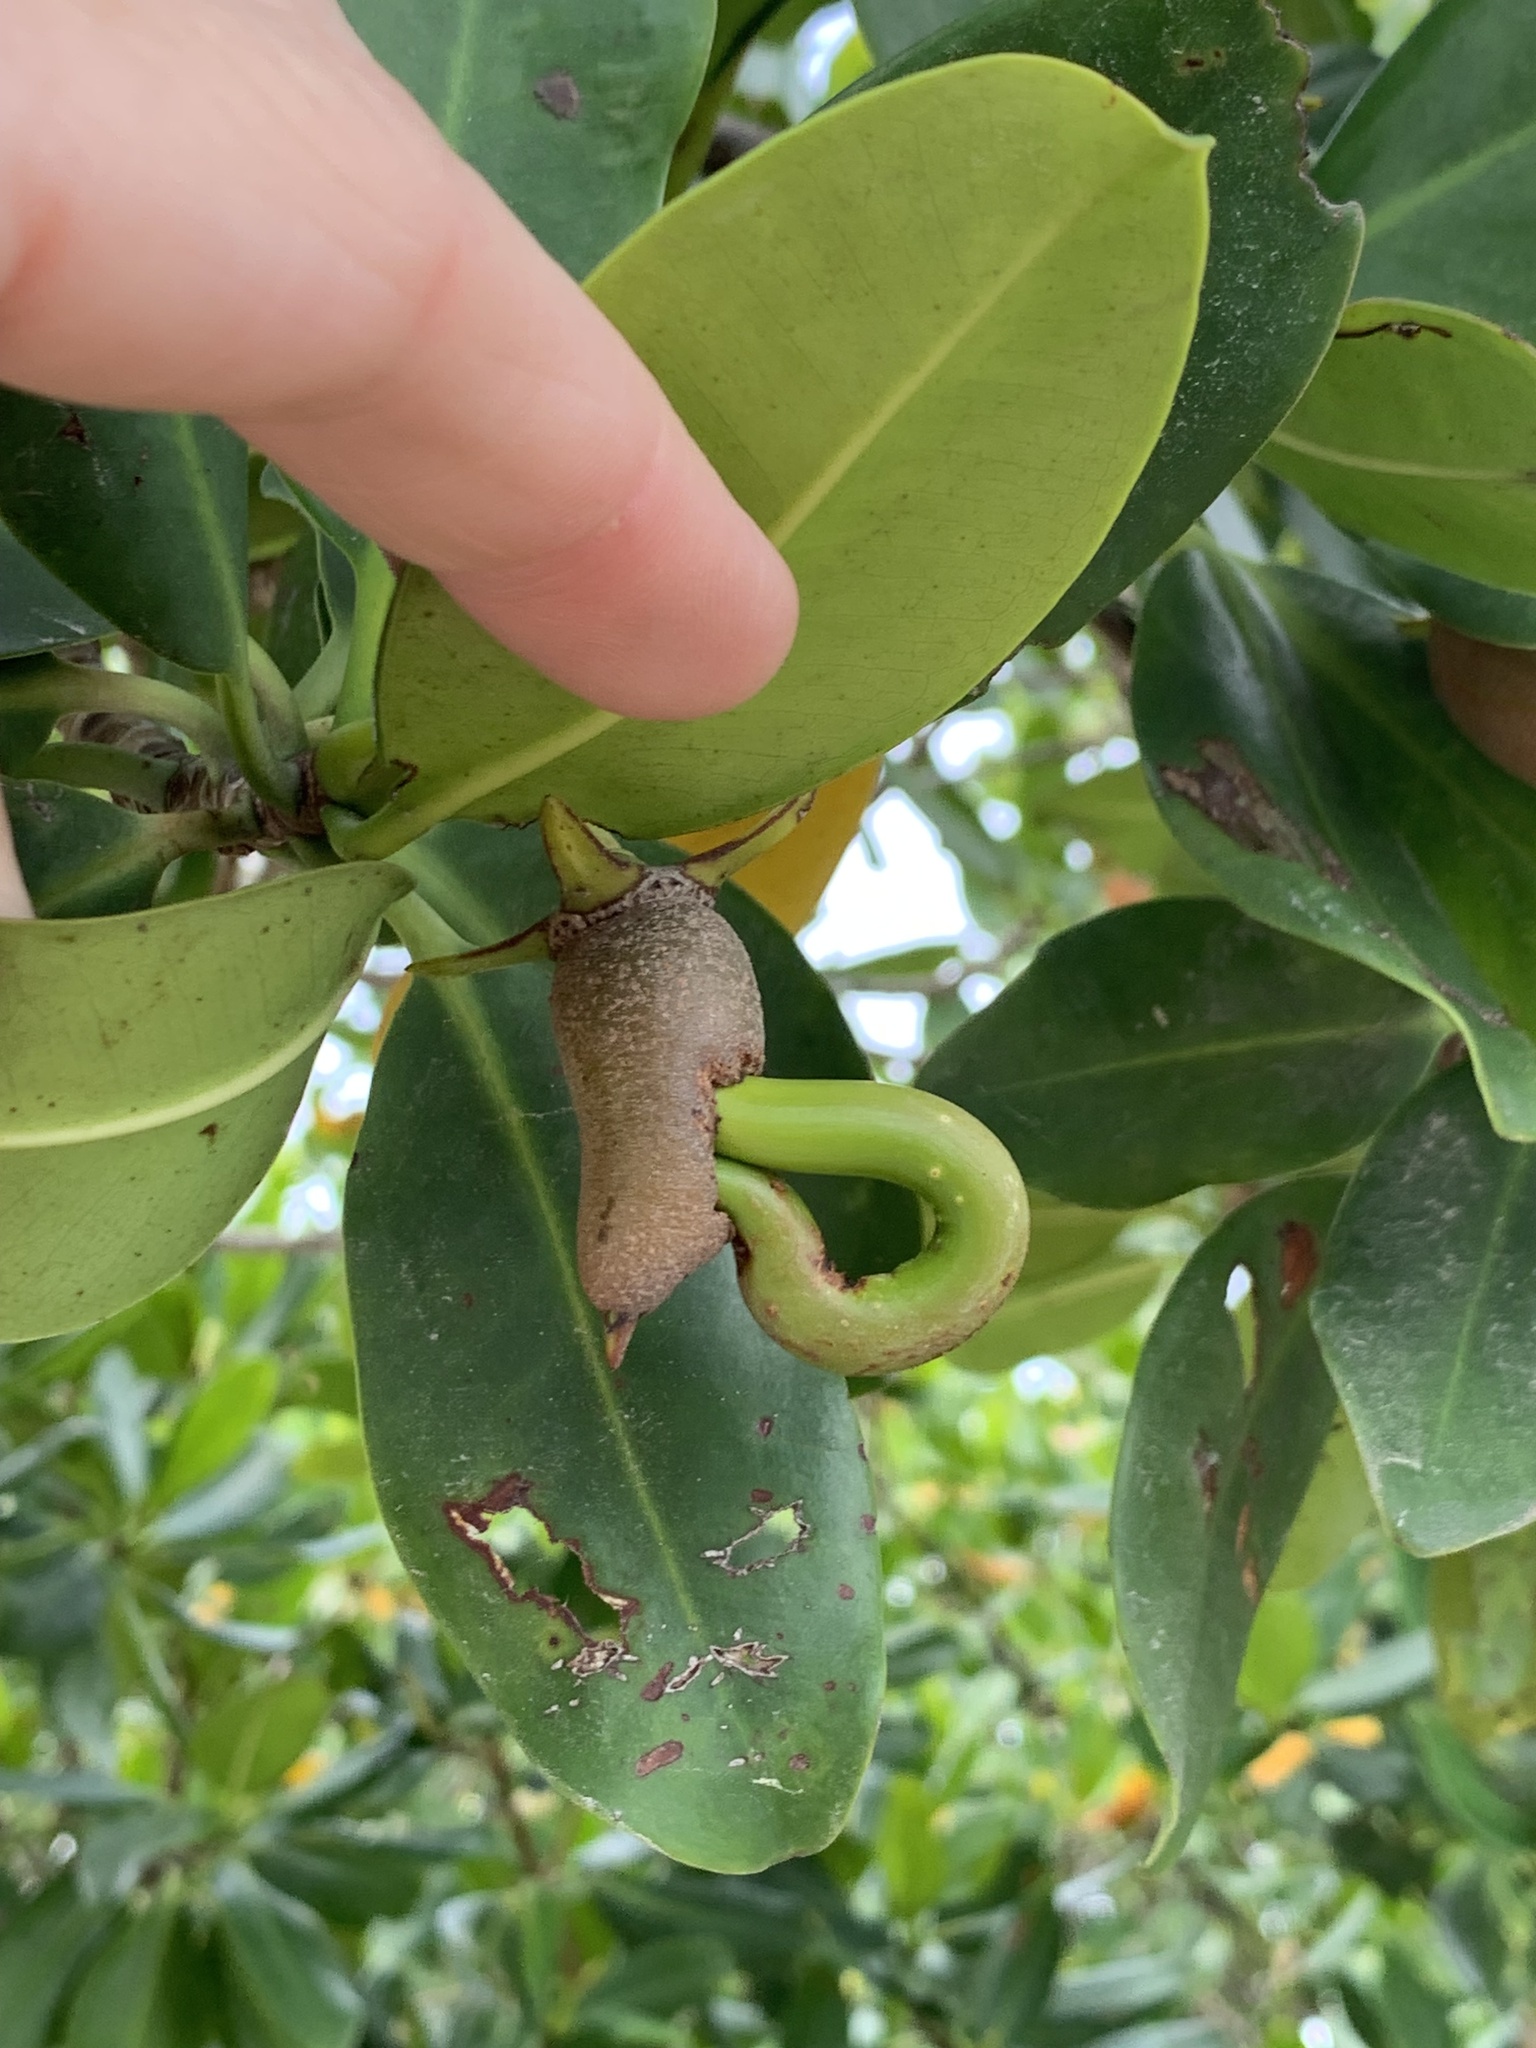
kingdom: Plantae
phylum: Tracheophyta
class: Magnoliopsida
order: Malpighiales
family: Rhizophoraceae
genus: Rhizophora
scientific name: Rhizophora mangle
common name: Red mangrove
